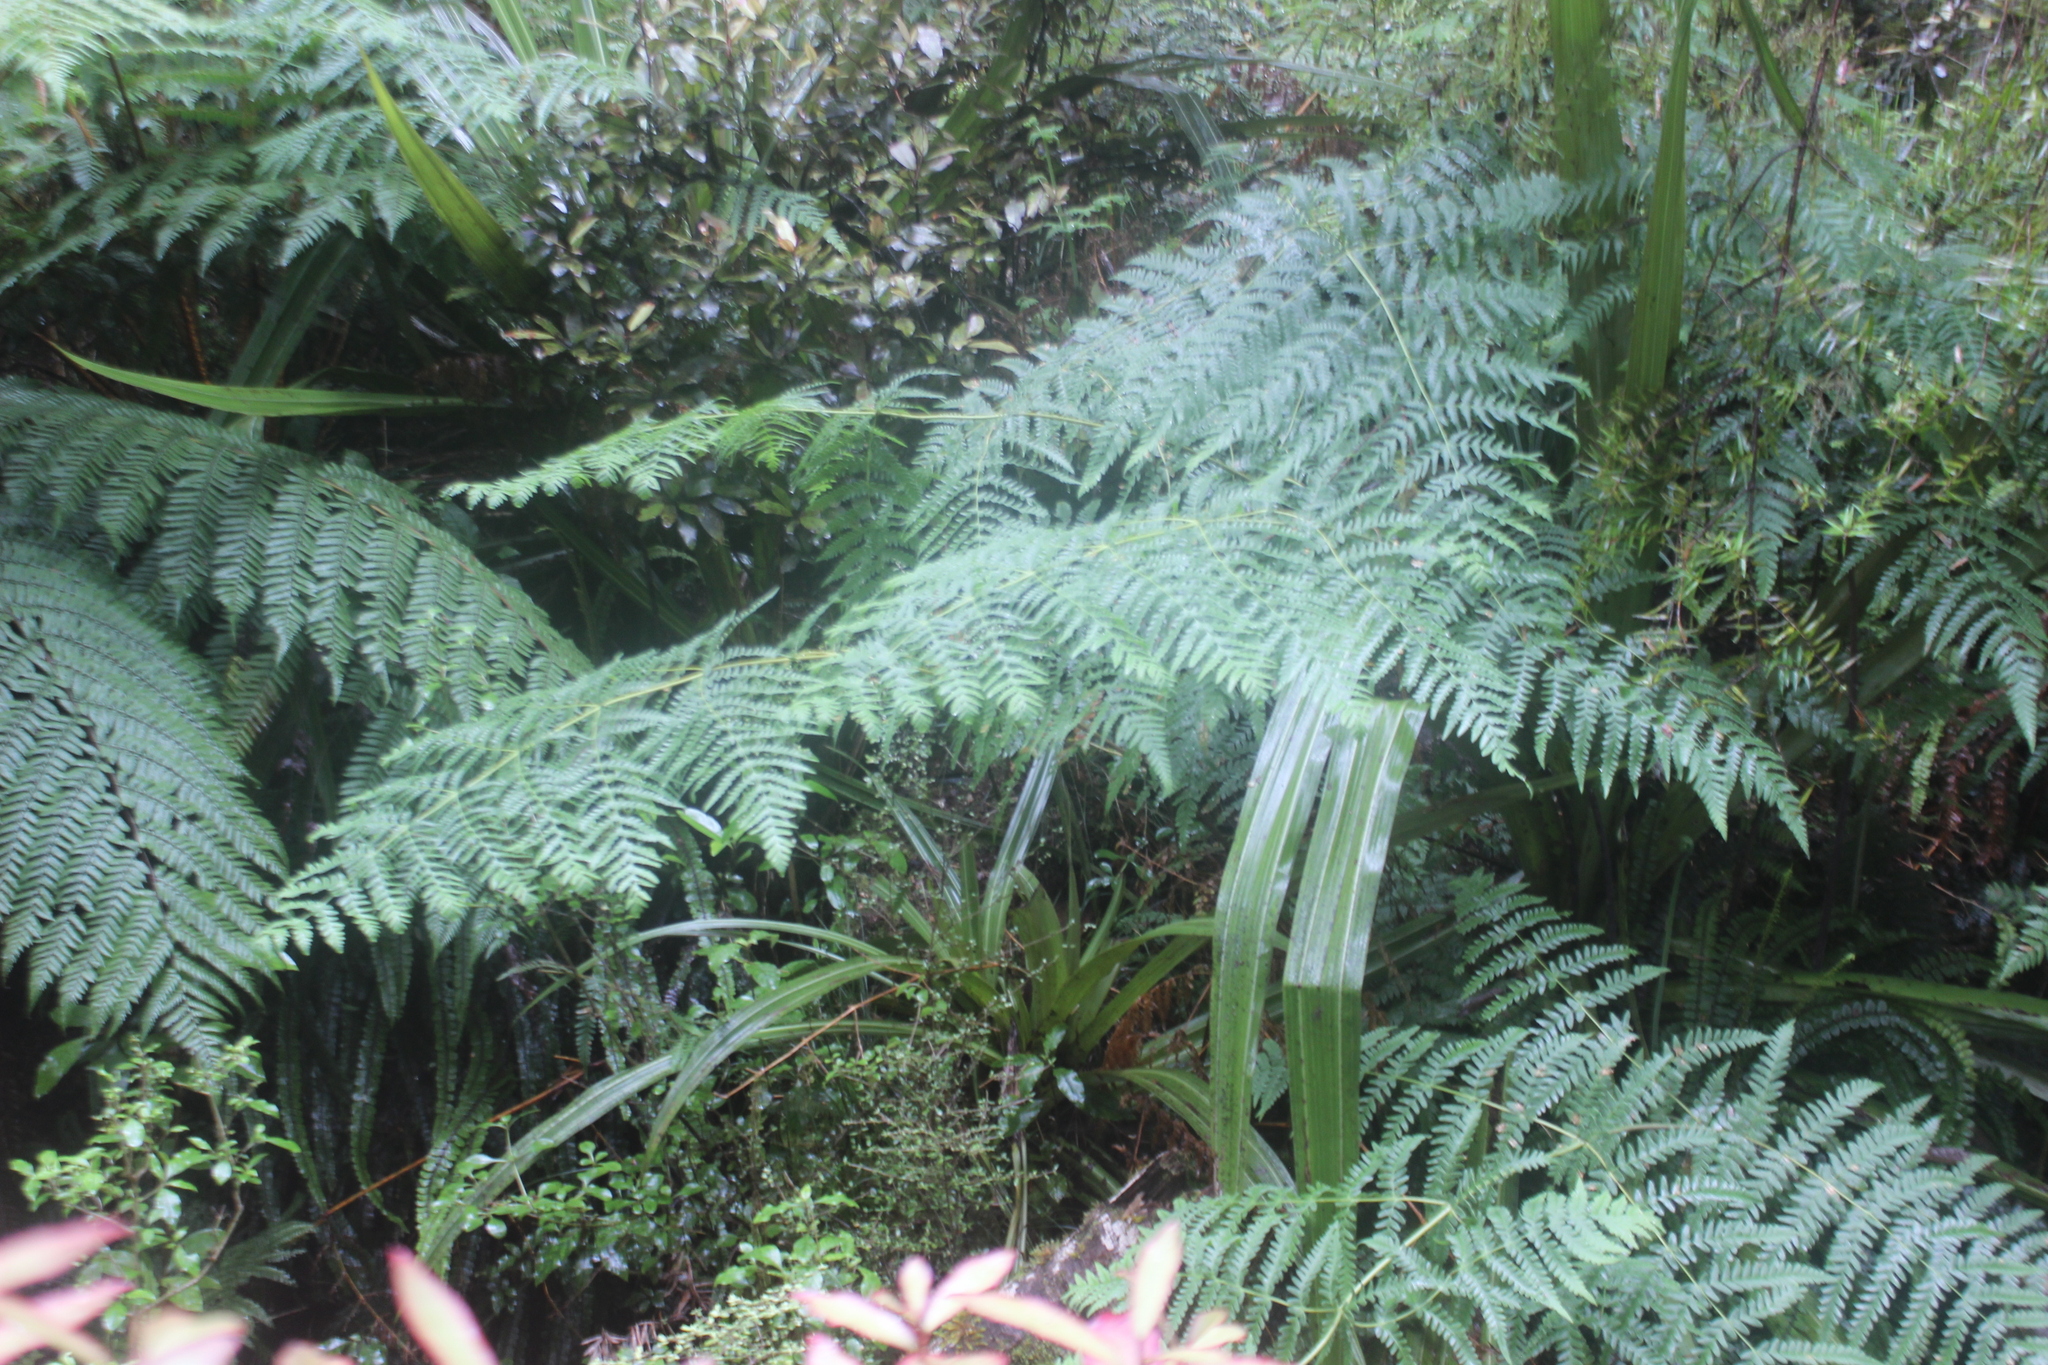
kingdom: Plantae
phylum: Tracheophyta
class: Polypodiopsida
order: Polypodiales
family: Dennstaedtiaceae
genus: Histiopteris
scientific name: Histiopteris incisa
